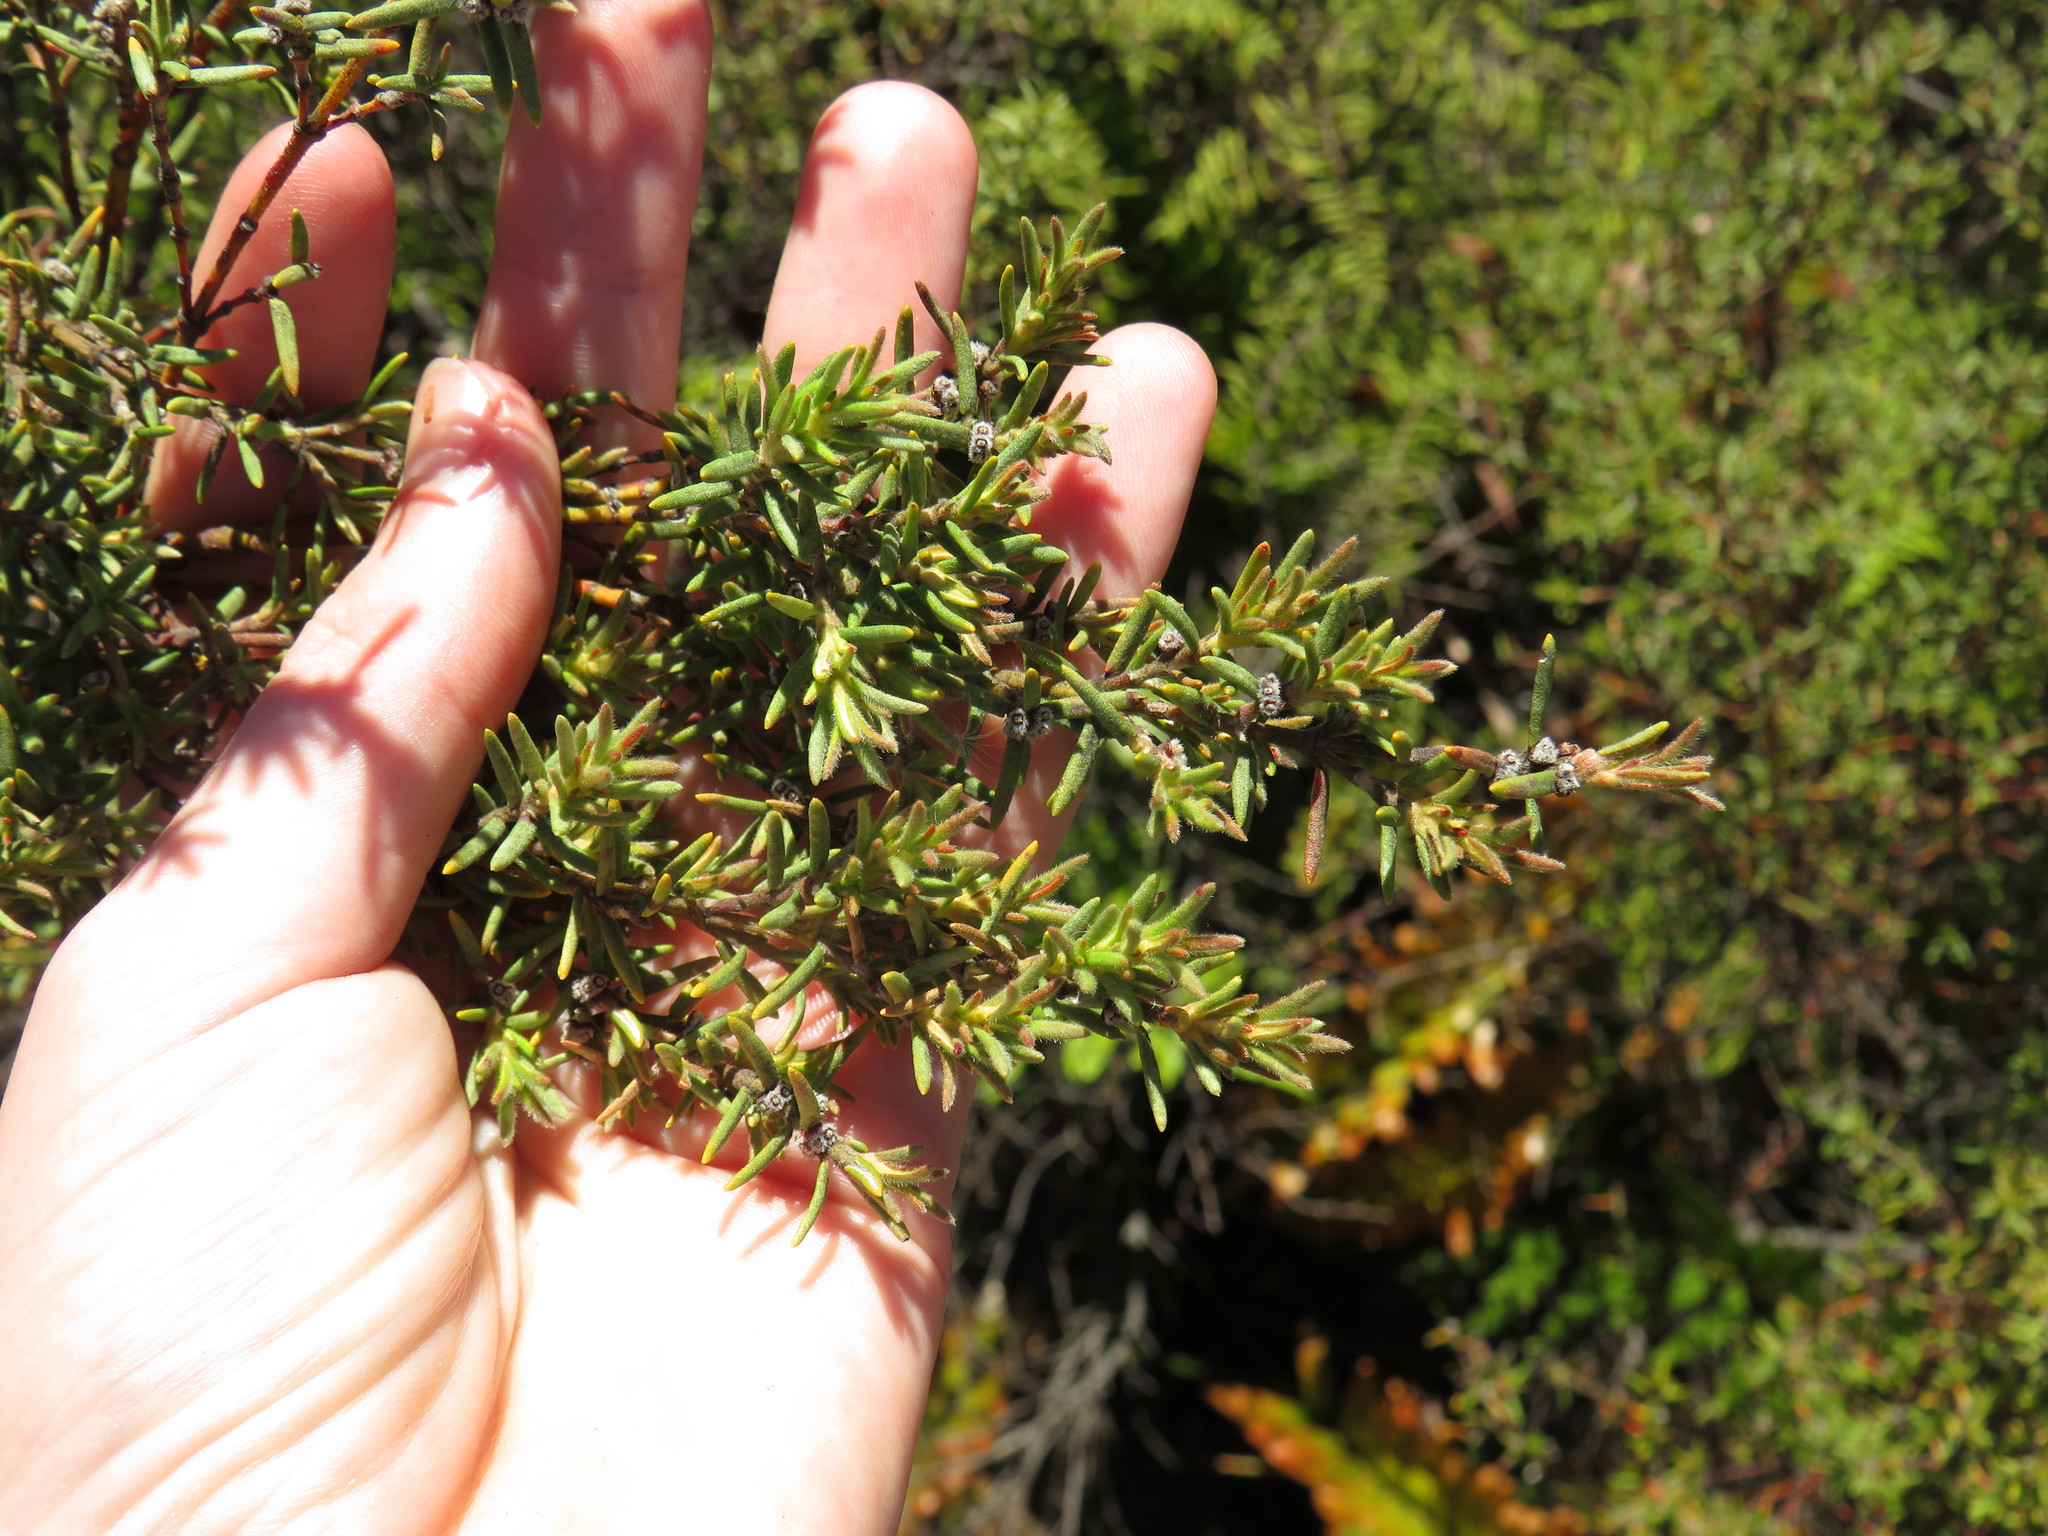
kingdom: Plantae
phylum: Tracheophyta
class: Magnoliopsida
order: Cornales
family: Grubbiaceae
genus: Grubbia
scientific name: Grubbia rosmarinifolia
